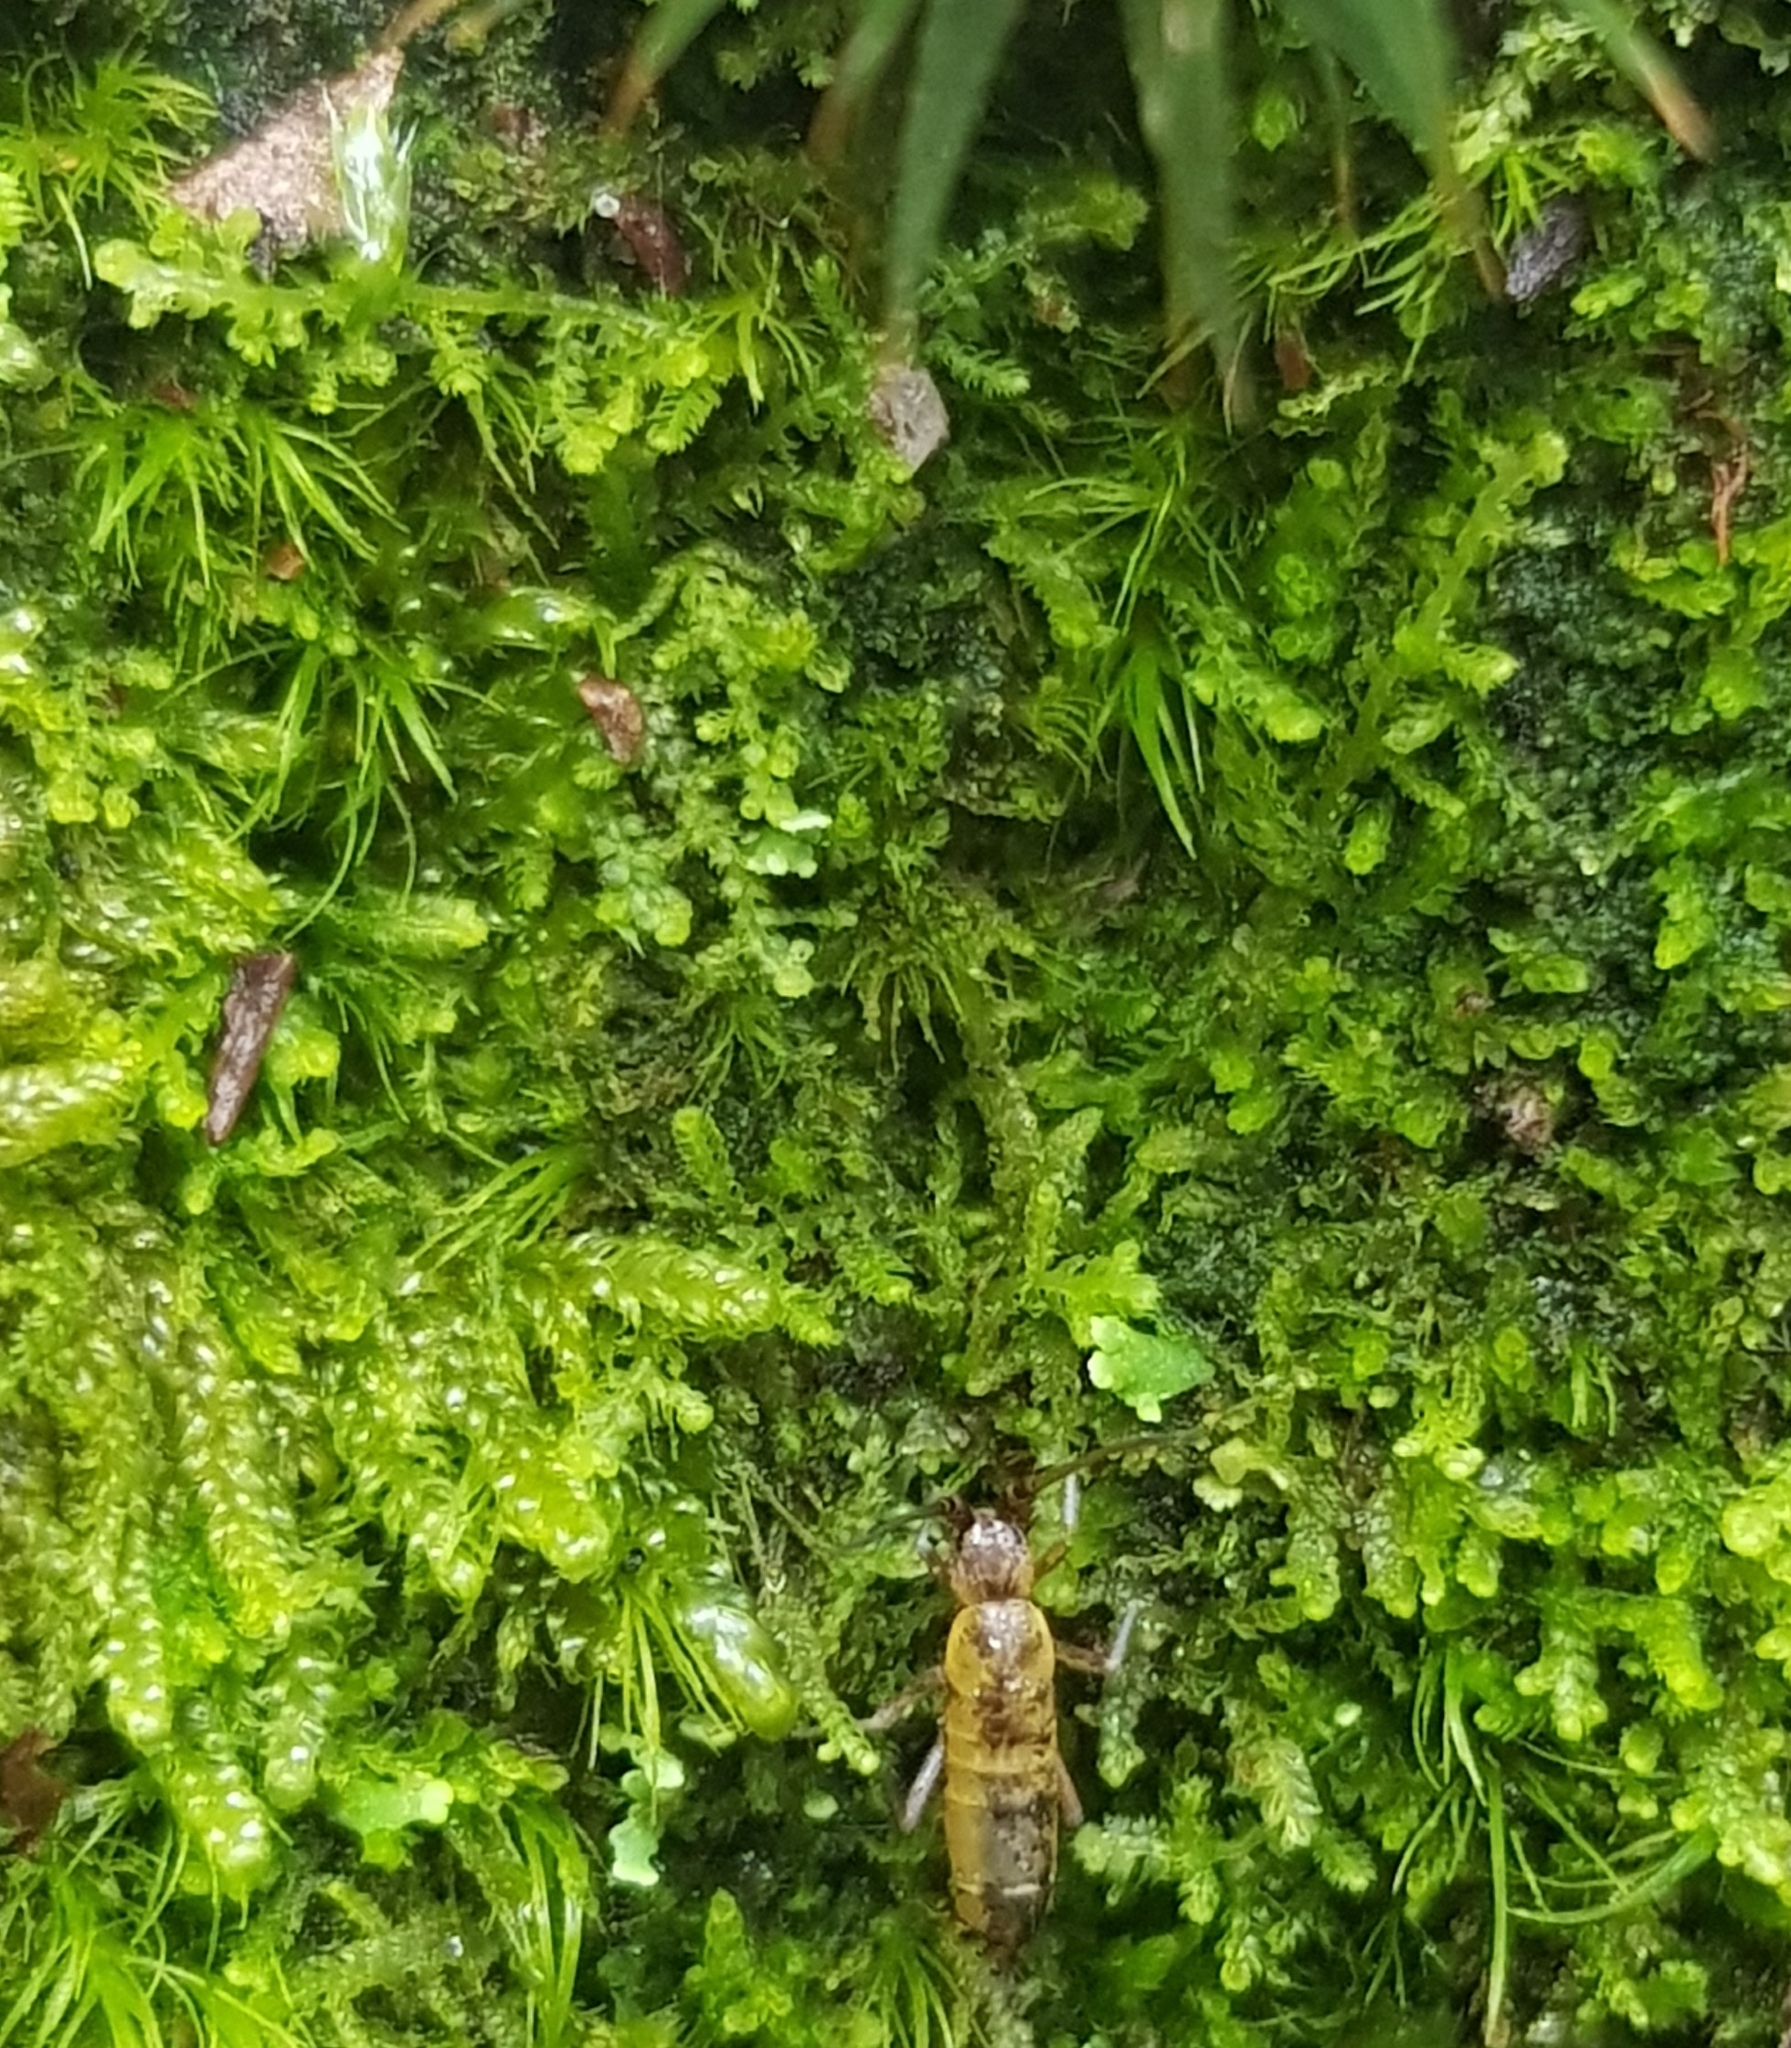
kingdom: Plantae
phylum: Marchantiophyta
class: Jungermanniopsida
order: Jungermanniales
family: Lepidoziaceae
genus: Lepidozia
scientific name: Lepidozia reptans
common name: Creeping fingerwort
